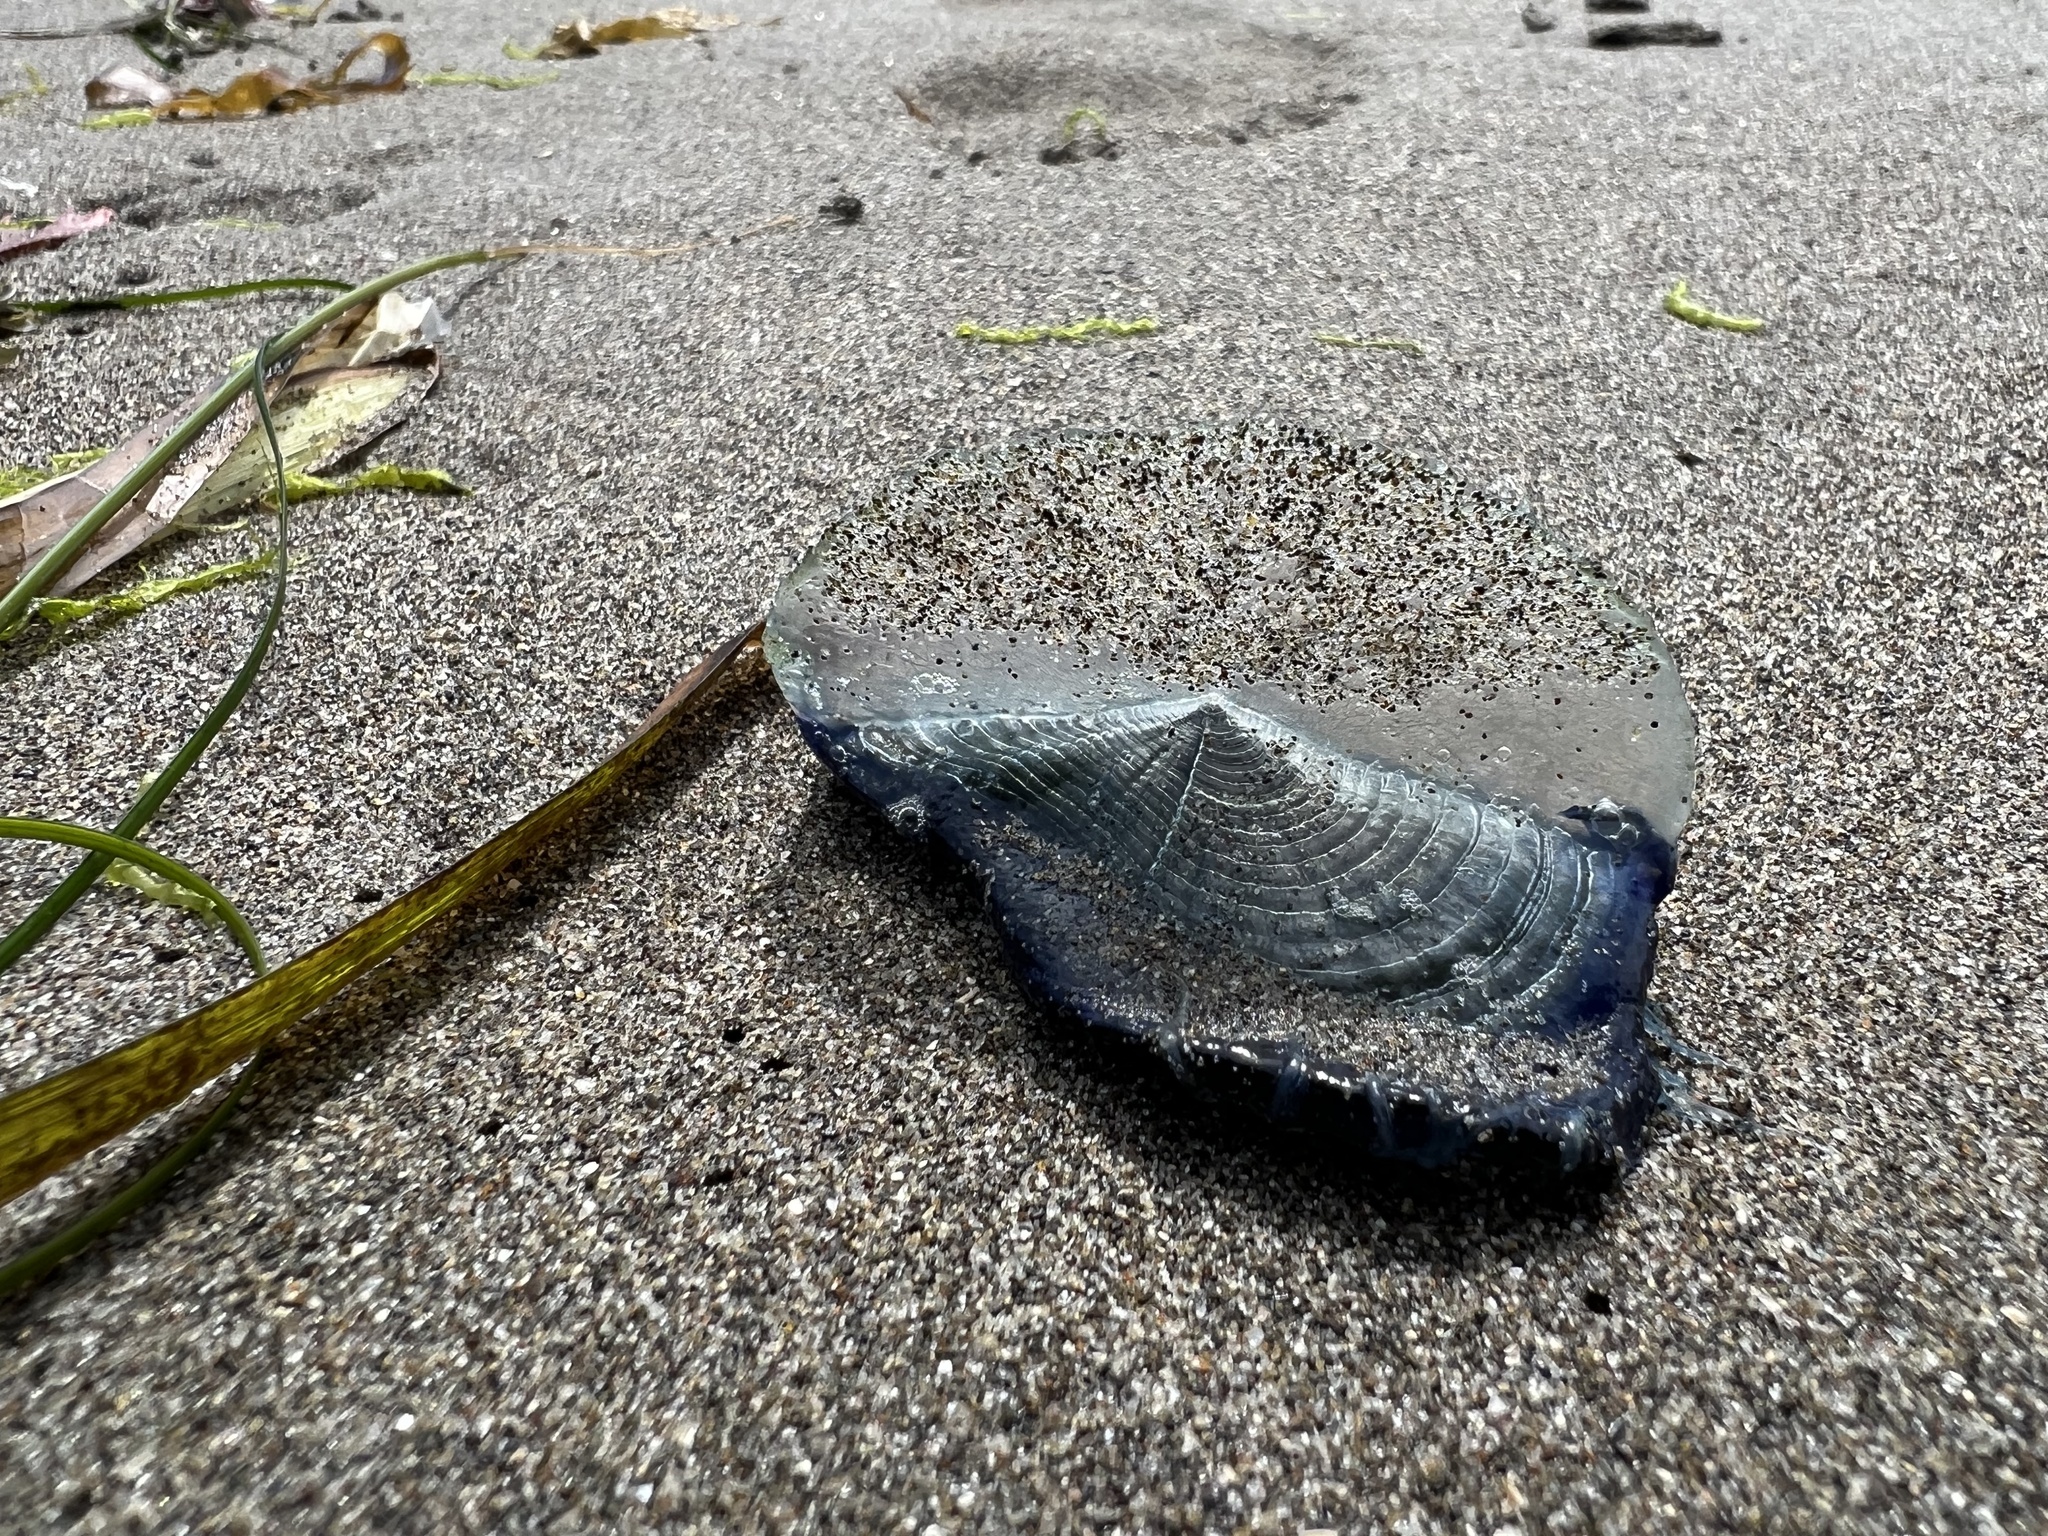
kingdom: Animalia
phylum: Cnidaria
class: Hydrozoa
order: Anthoathecata
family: Porpitidae
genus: Velella
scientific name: Velella velella
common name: By-the-wind-sailor
